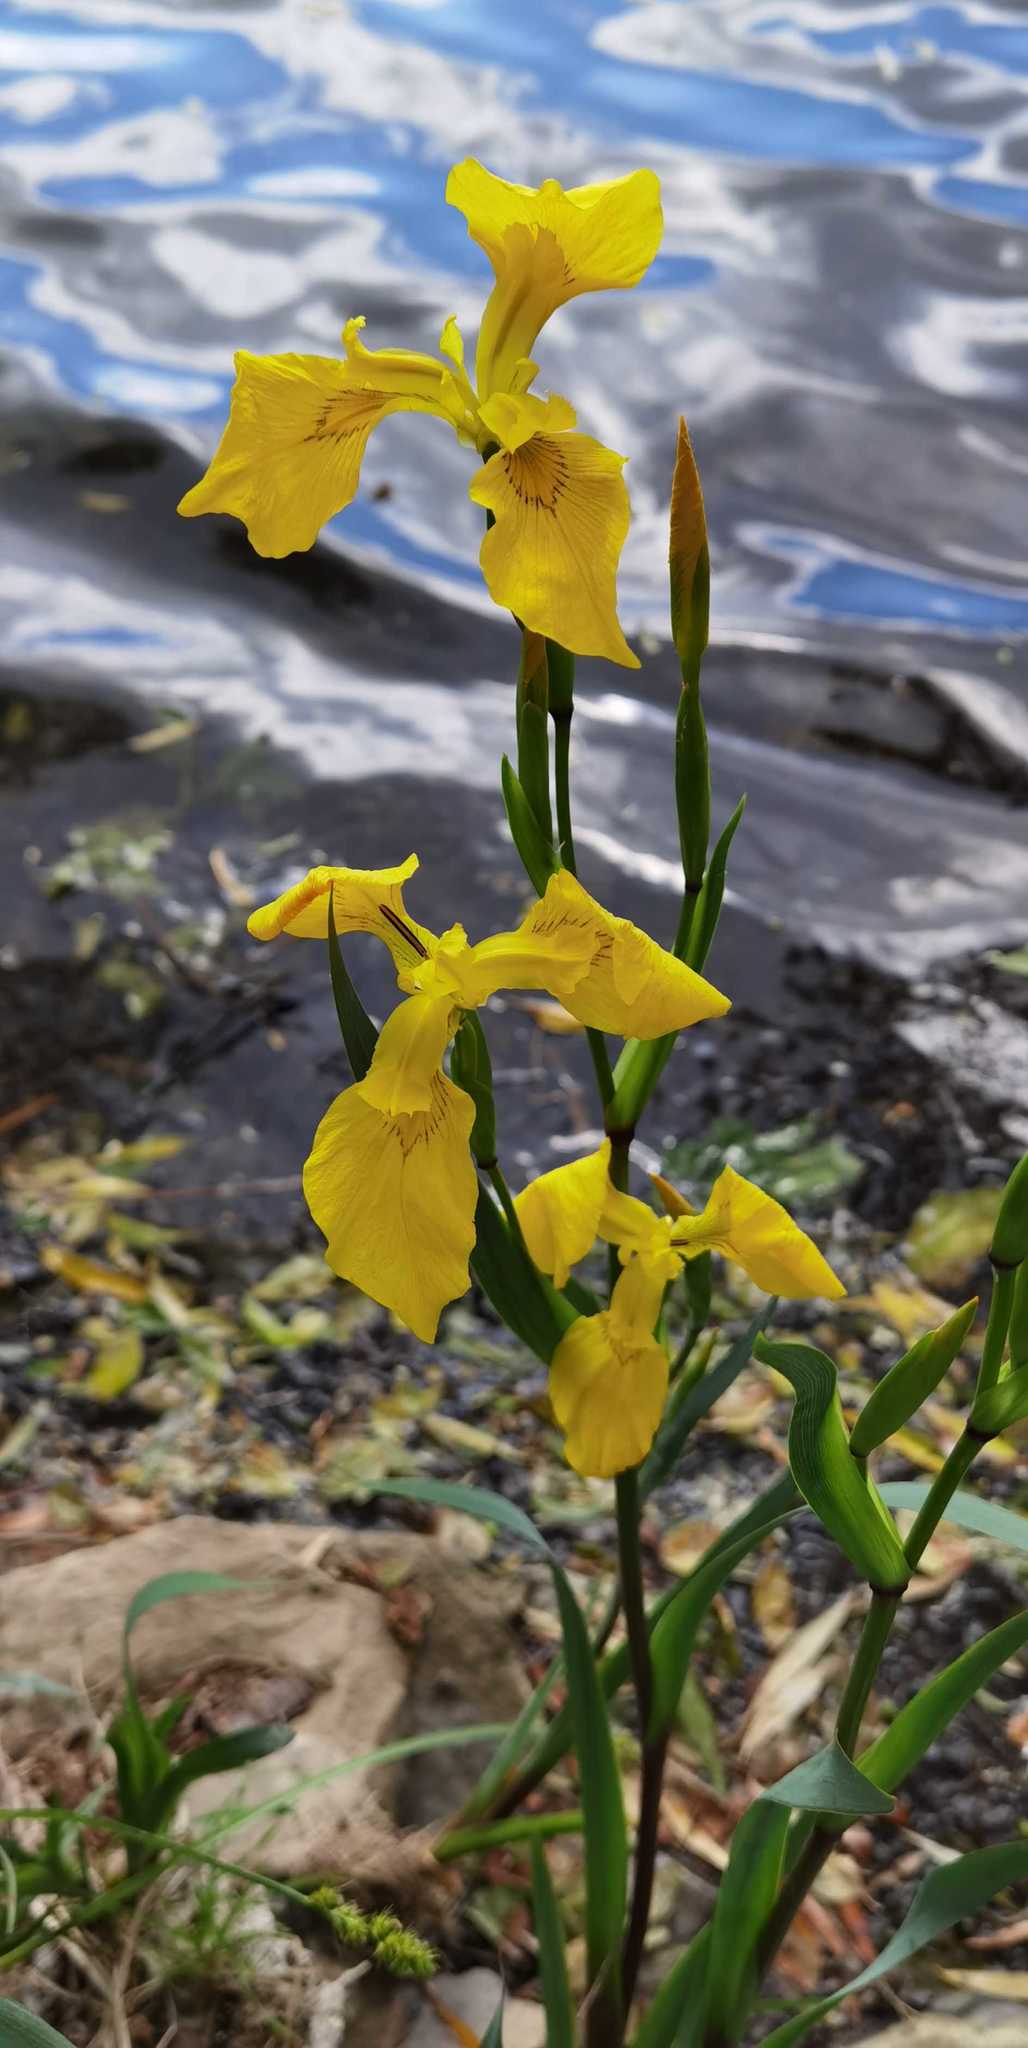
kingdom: Plantae
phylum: Tracheophyta
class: Liliopsida
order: Asparagales
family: Iridaceae
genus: Iris
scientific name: Iris pseudacorus
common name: Yellow flag
